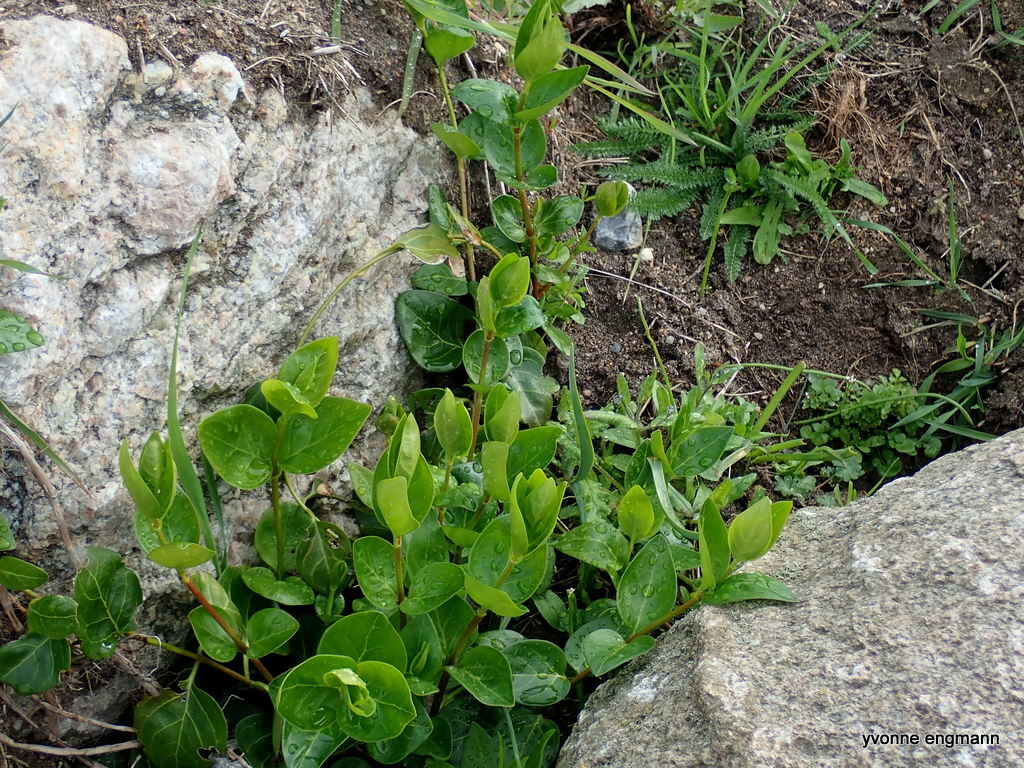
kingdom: Plantae
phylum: Tracheophyta
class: Magnoliopsida
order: Gentianales
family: Apocynaceae
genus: Vinca
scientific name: Vinca major
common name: Greater periwinkle
